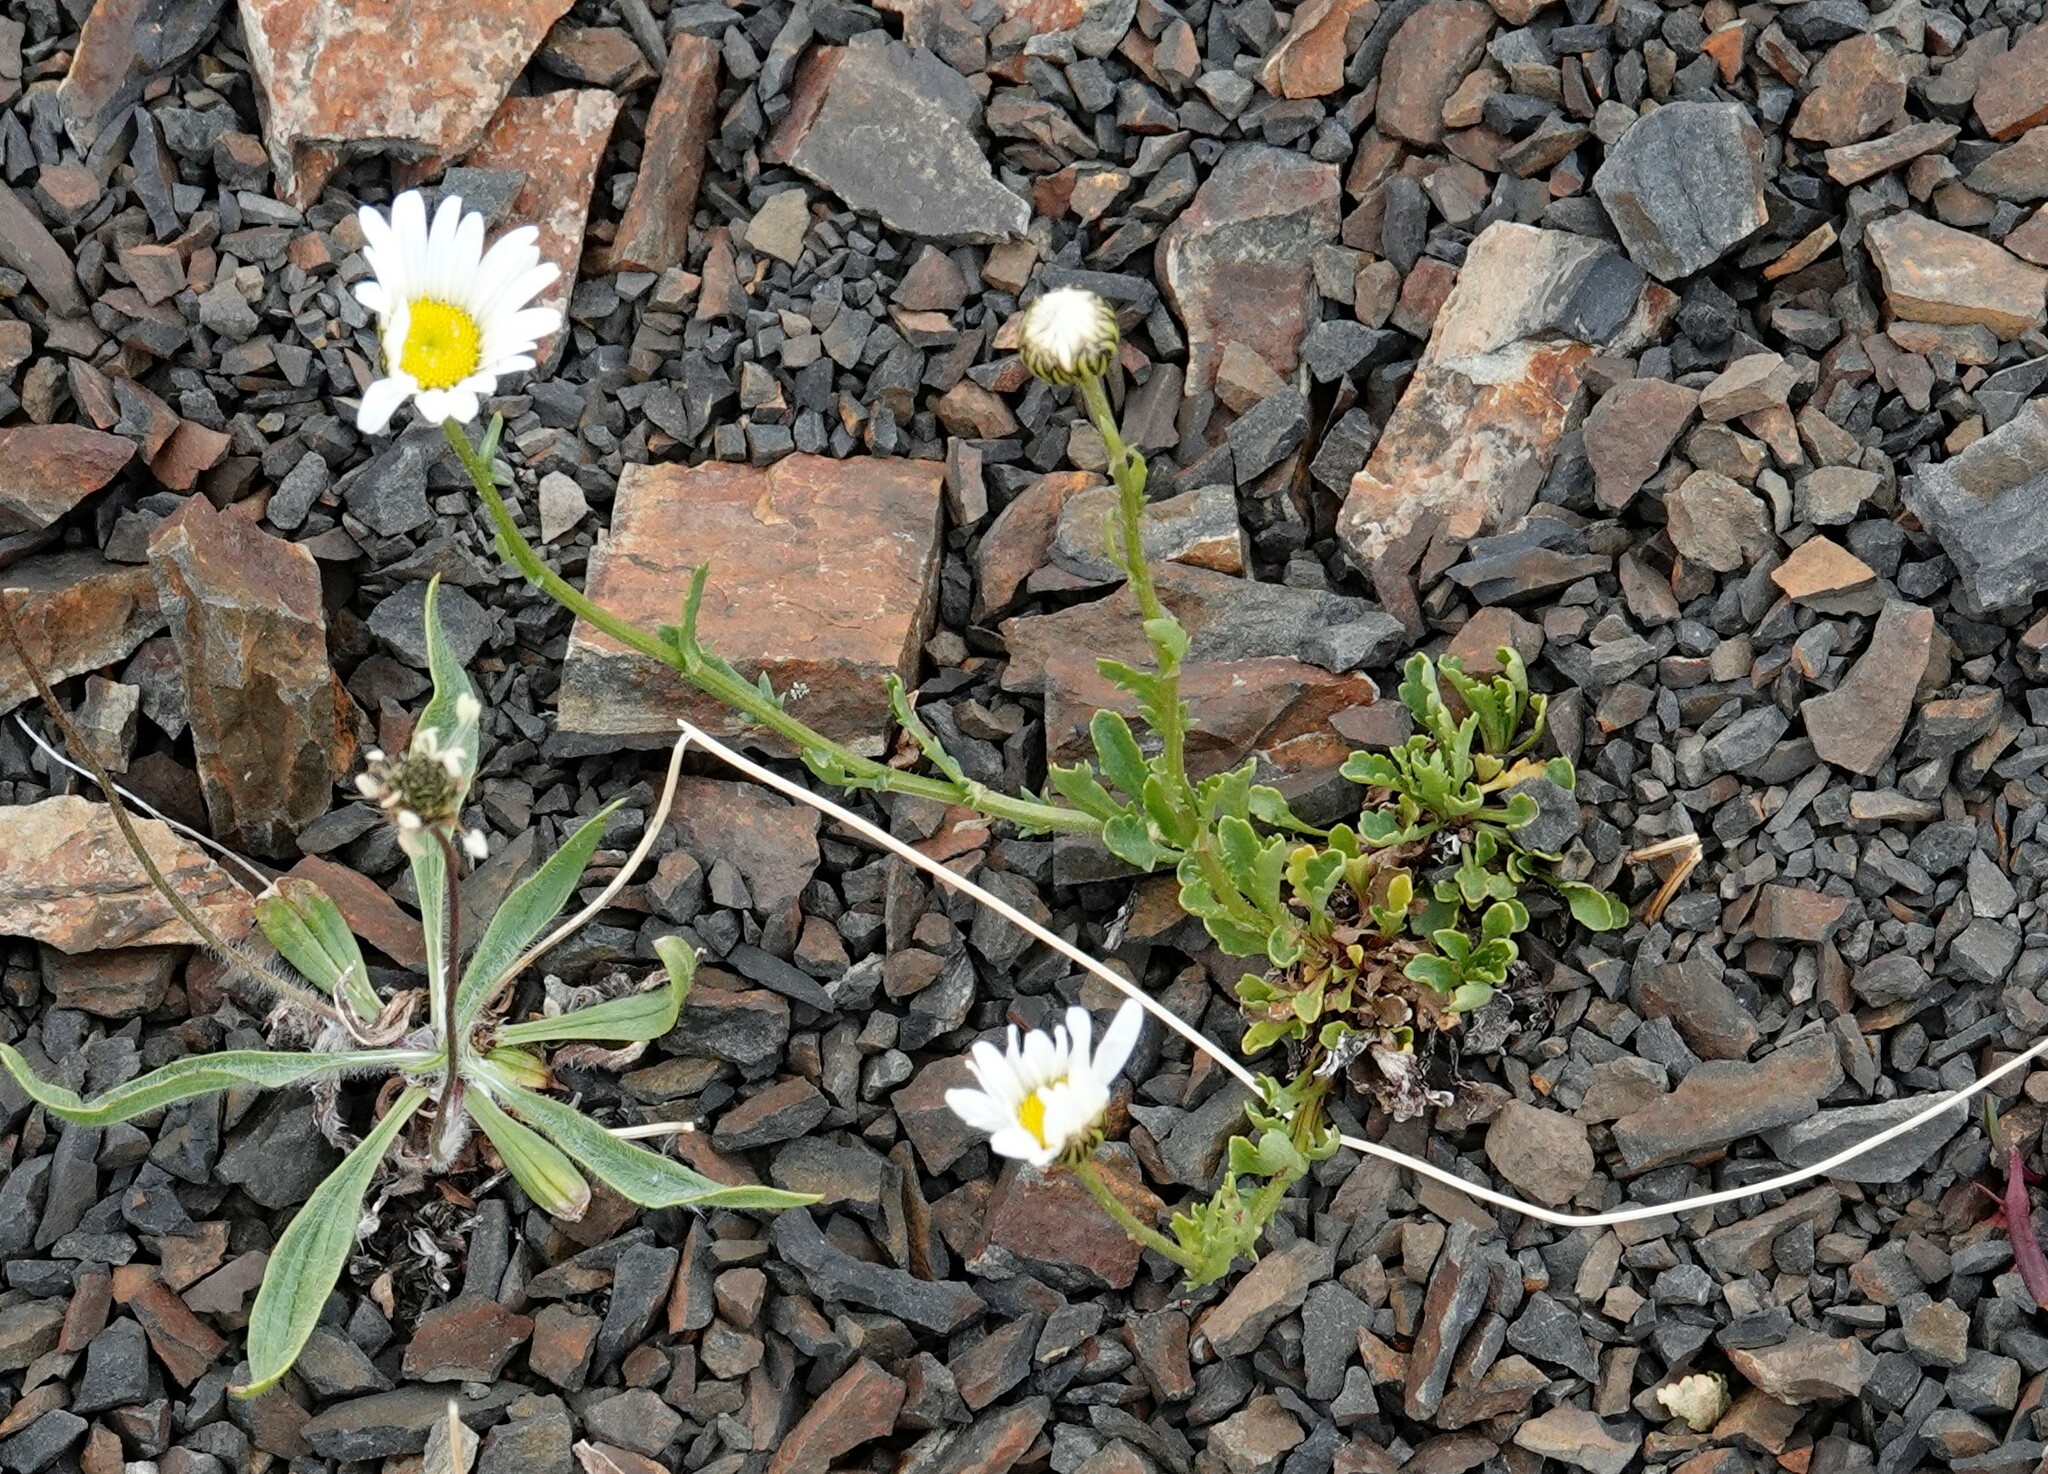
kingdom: Plantae
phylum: Tracheophyta
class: Magnoliopsida
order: Asterales
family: Asteraceae
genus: Leucanthemum
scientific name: Leucanthemum vulgare
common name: Oxeye daisy
